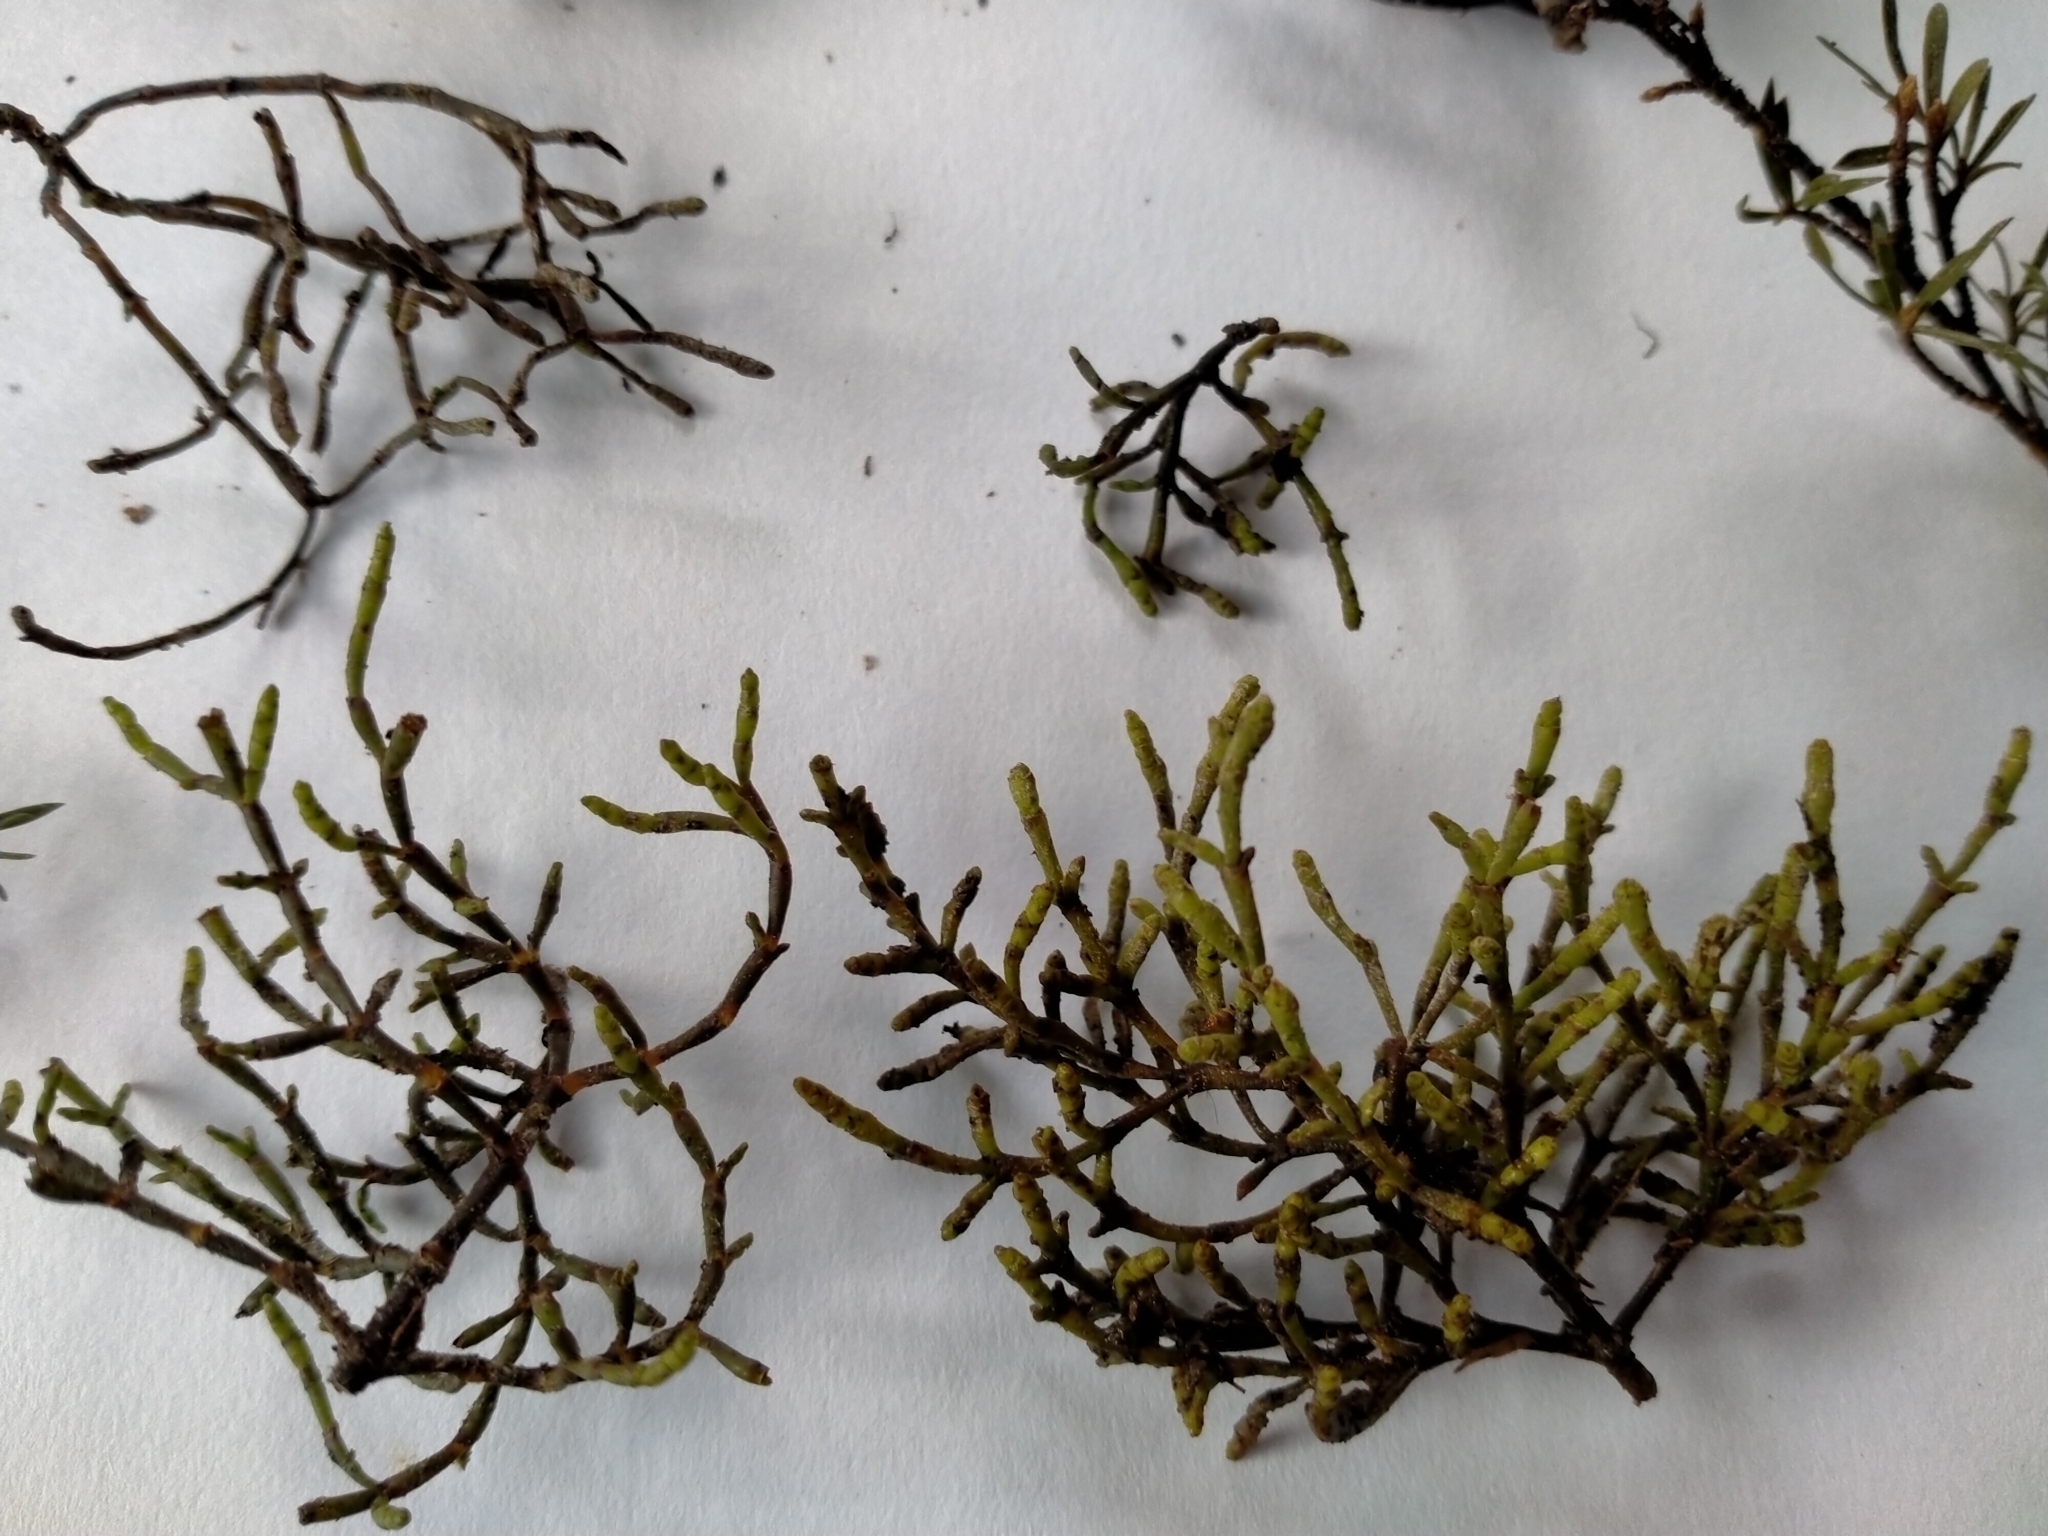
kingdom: Plantae
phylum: Tracheophyta
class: Magnoliopsida
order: Santalales
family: Viscaceae
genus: Korthalsella
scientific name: Korthalsella salicornioides
